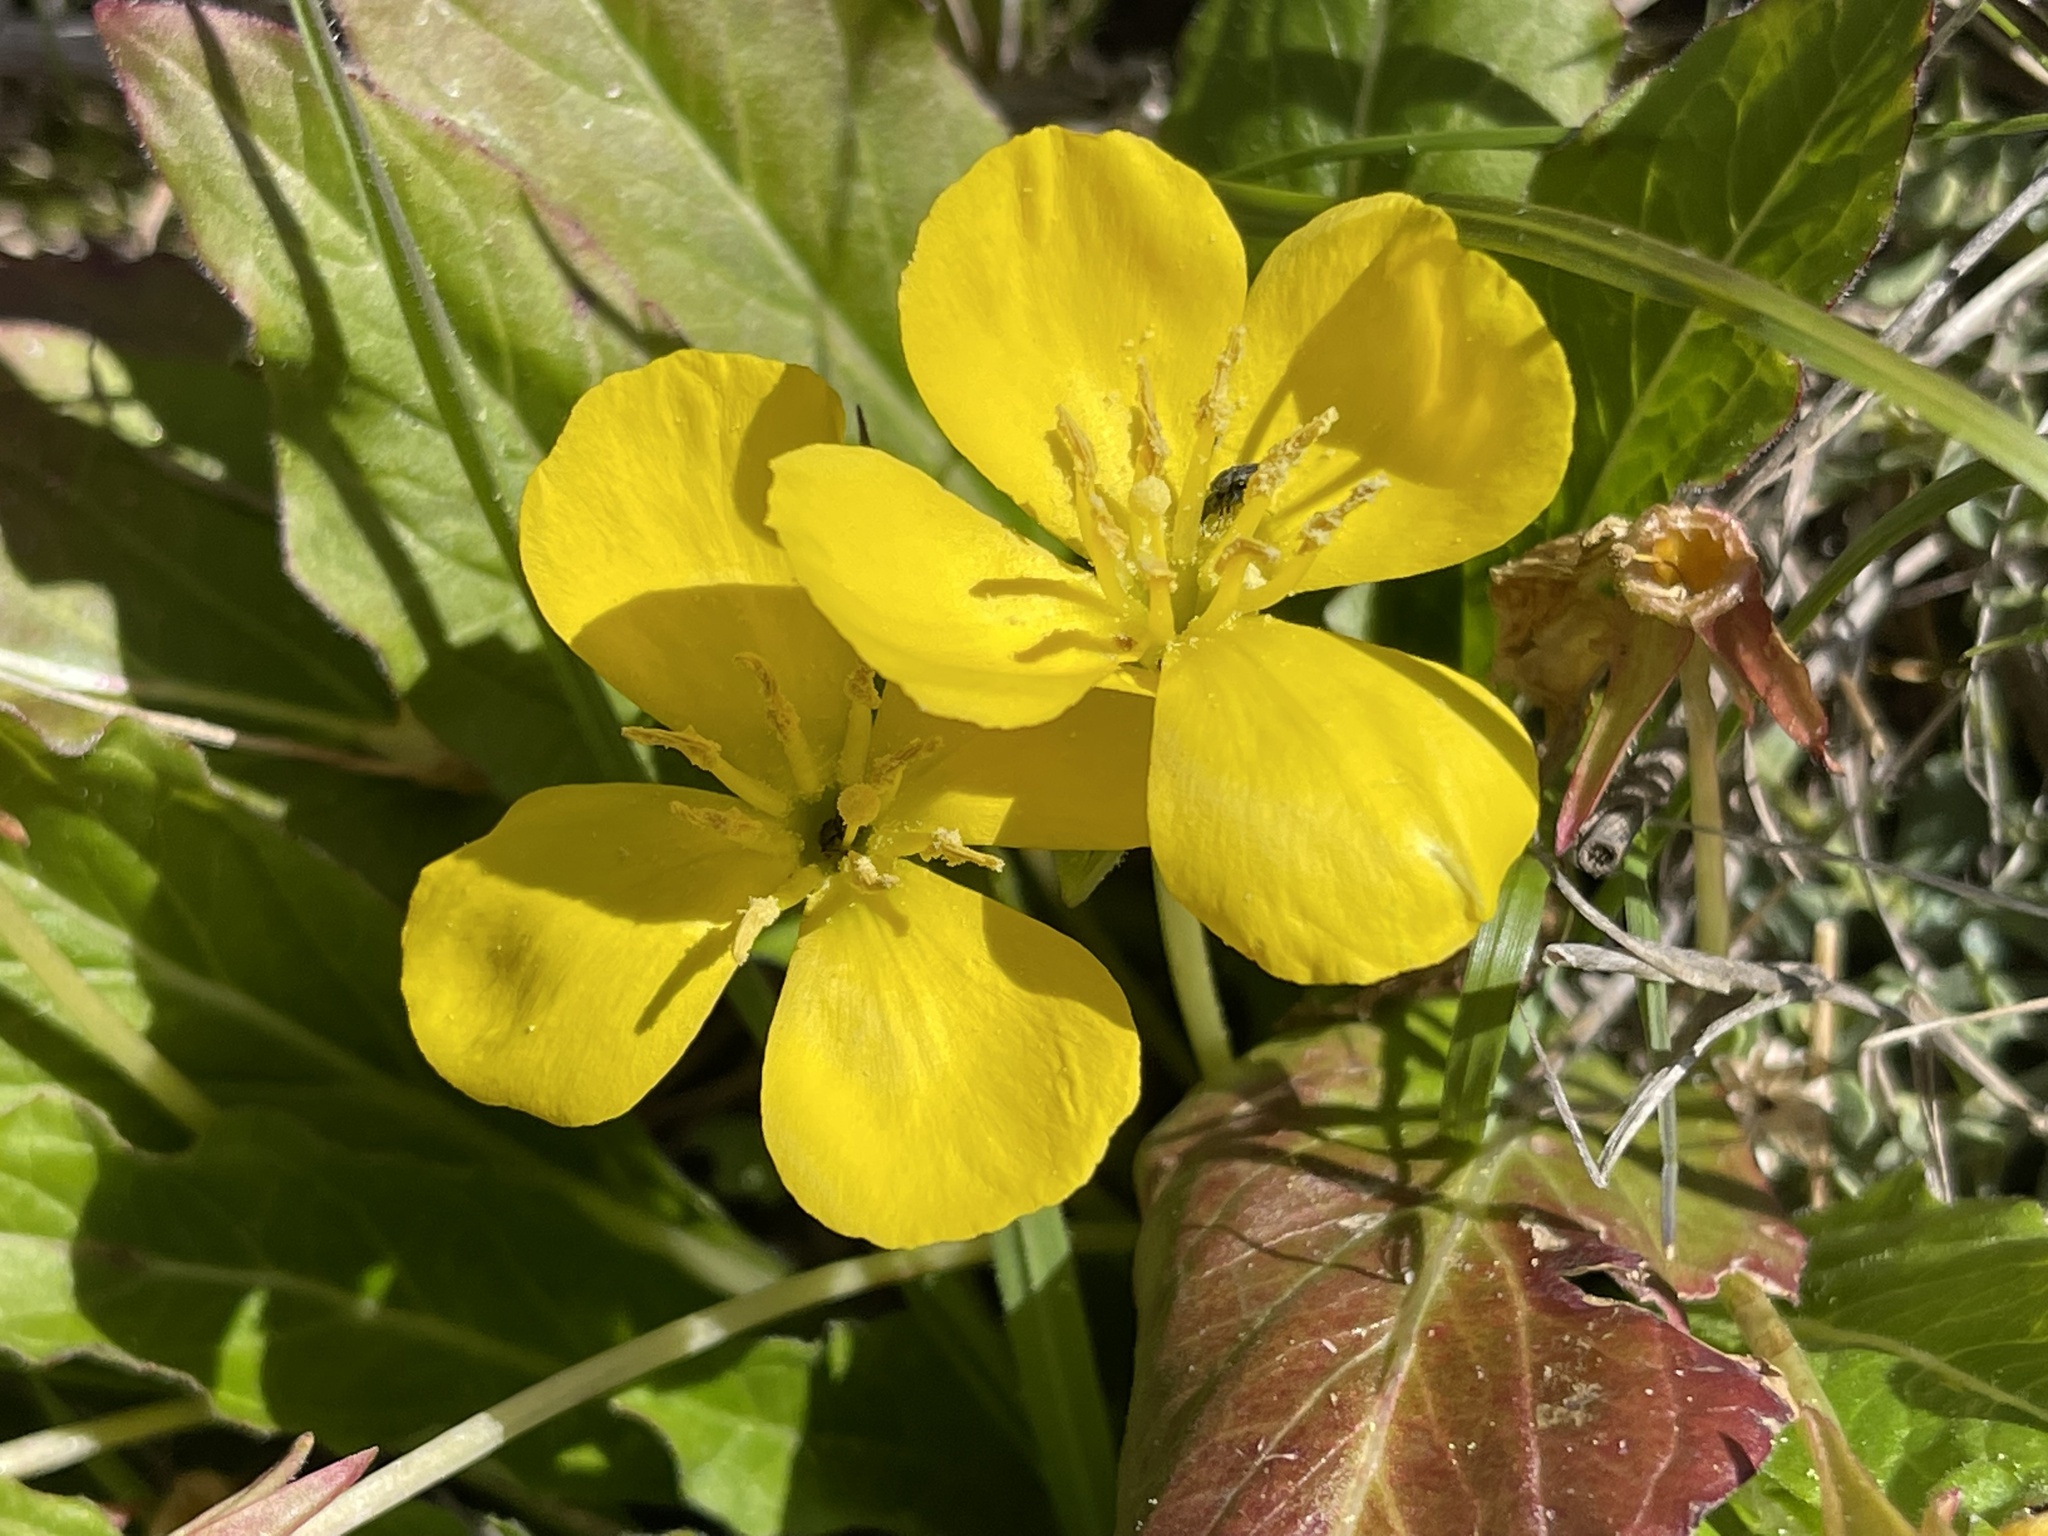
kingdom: Plantae
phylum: Tracheophyta
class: Magnoliopsida
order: Myrtales
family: Onagraceae
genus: Taraxia
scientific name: Taraxia ovata
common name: Goldeneggs
